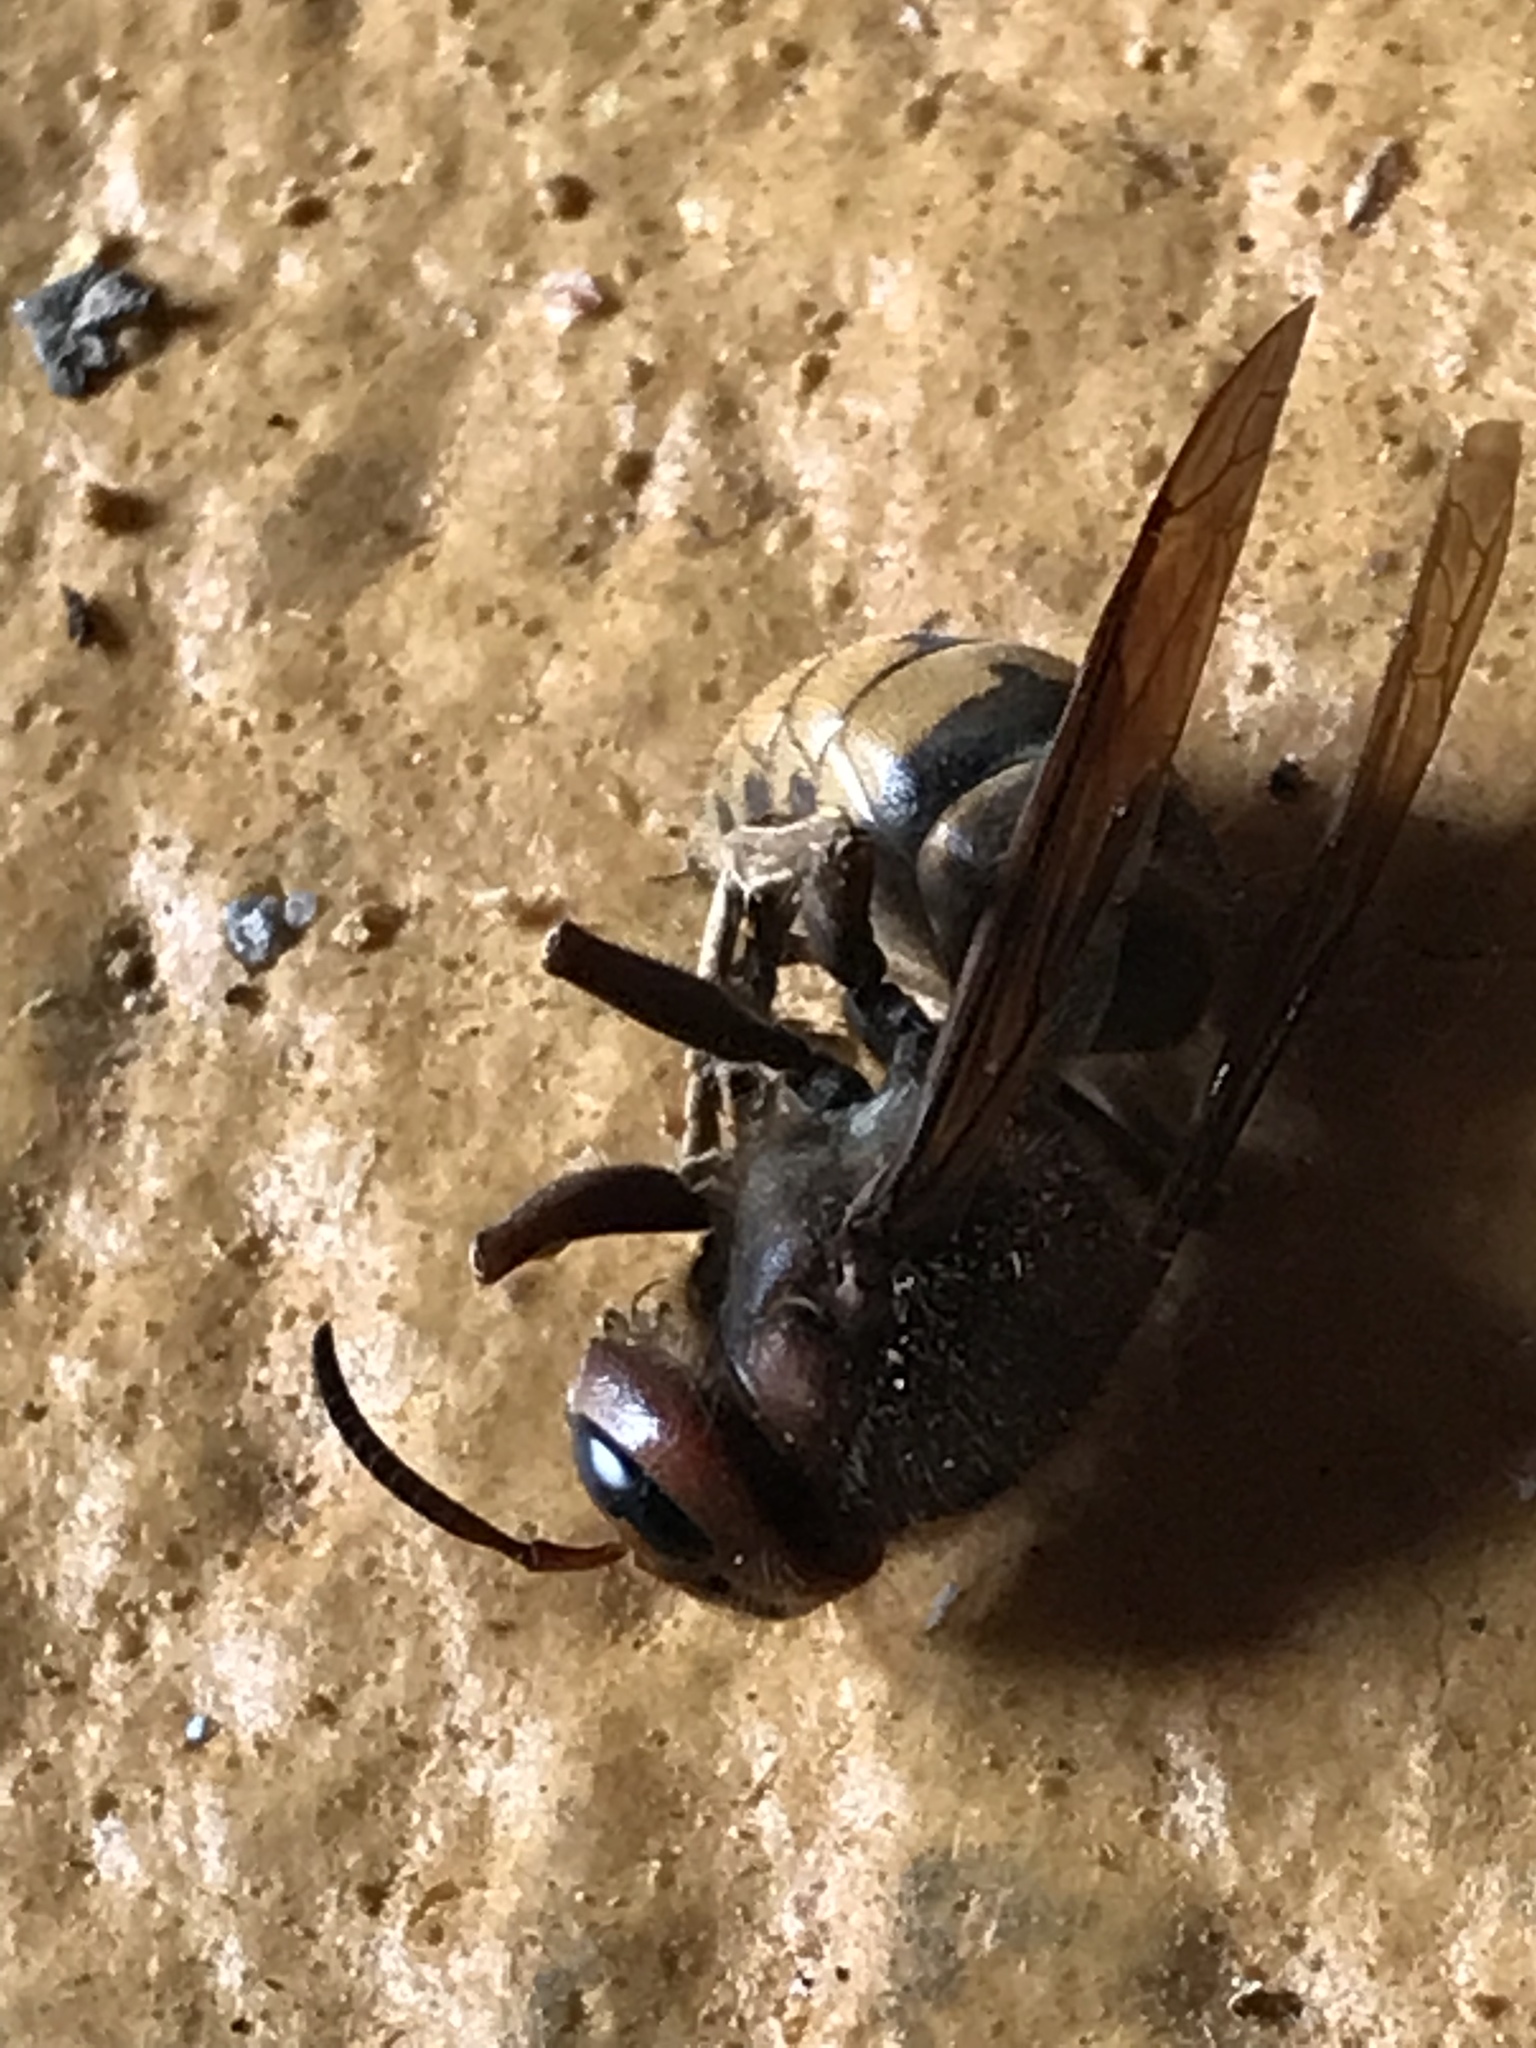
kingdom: Animalia
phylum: Arthropoda
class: Insecta
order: Hymenoptera
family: Vespidae
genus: Vespa
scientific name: Vespa crabro
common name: Hornet
